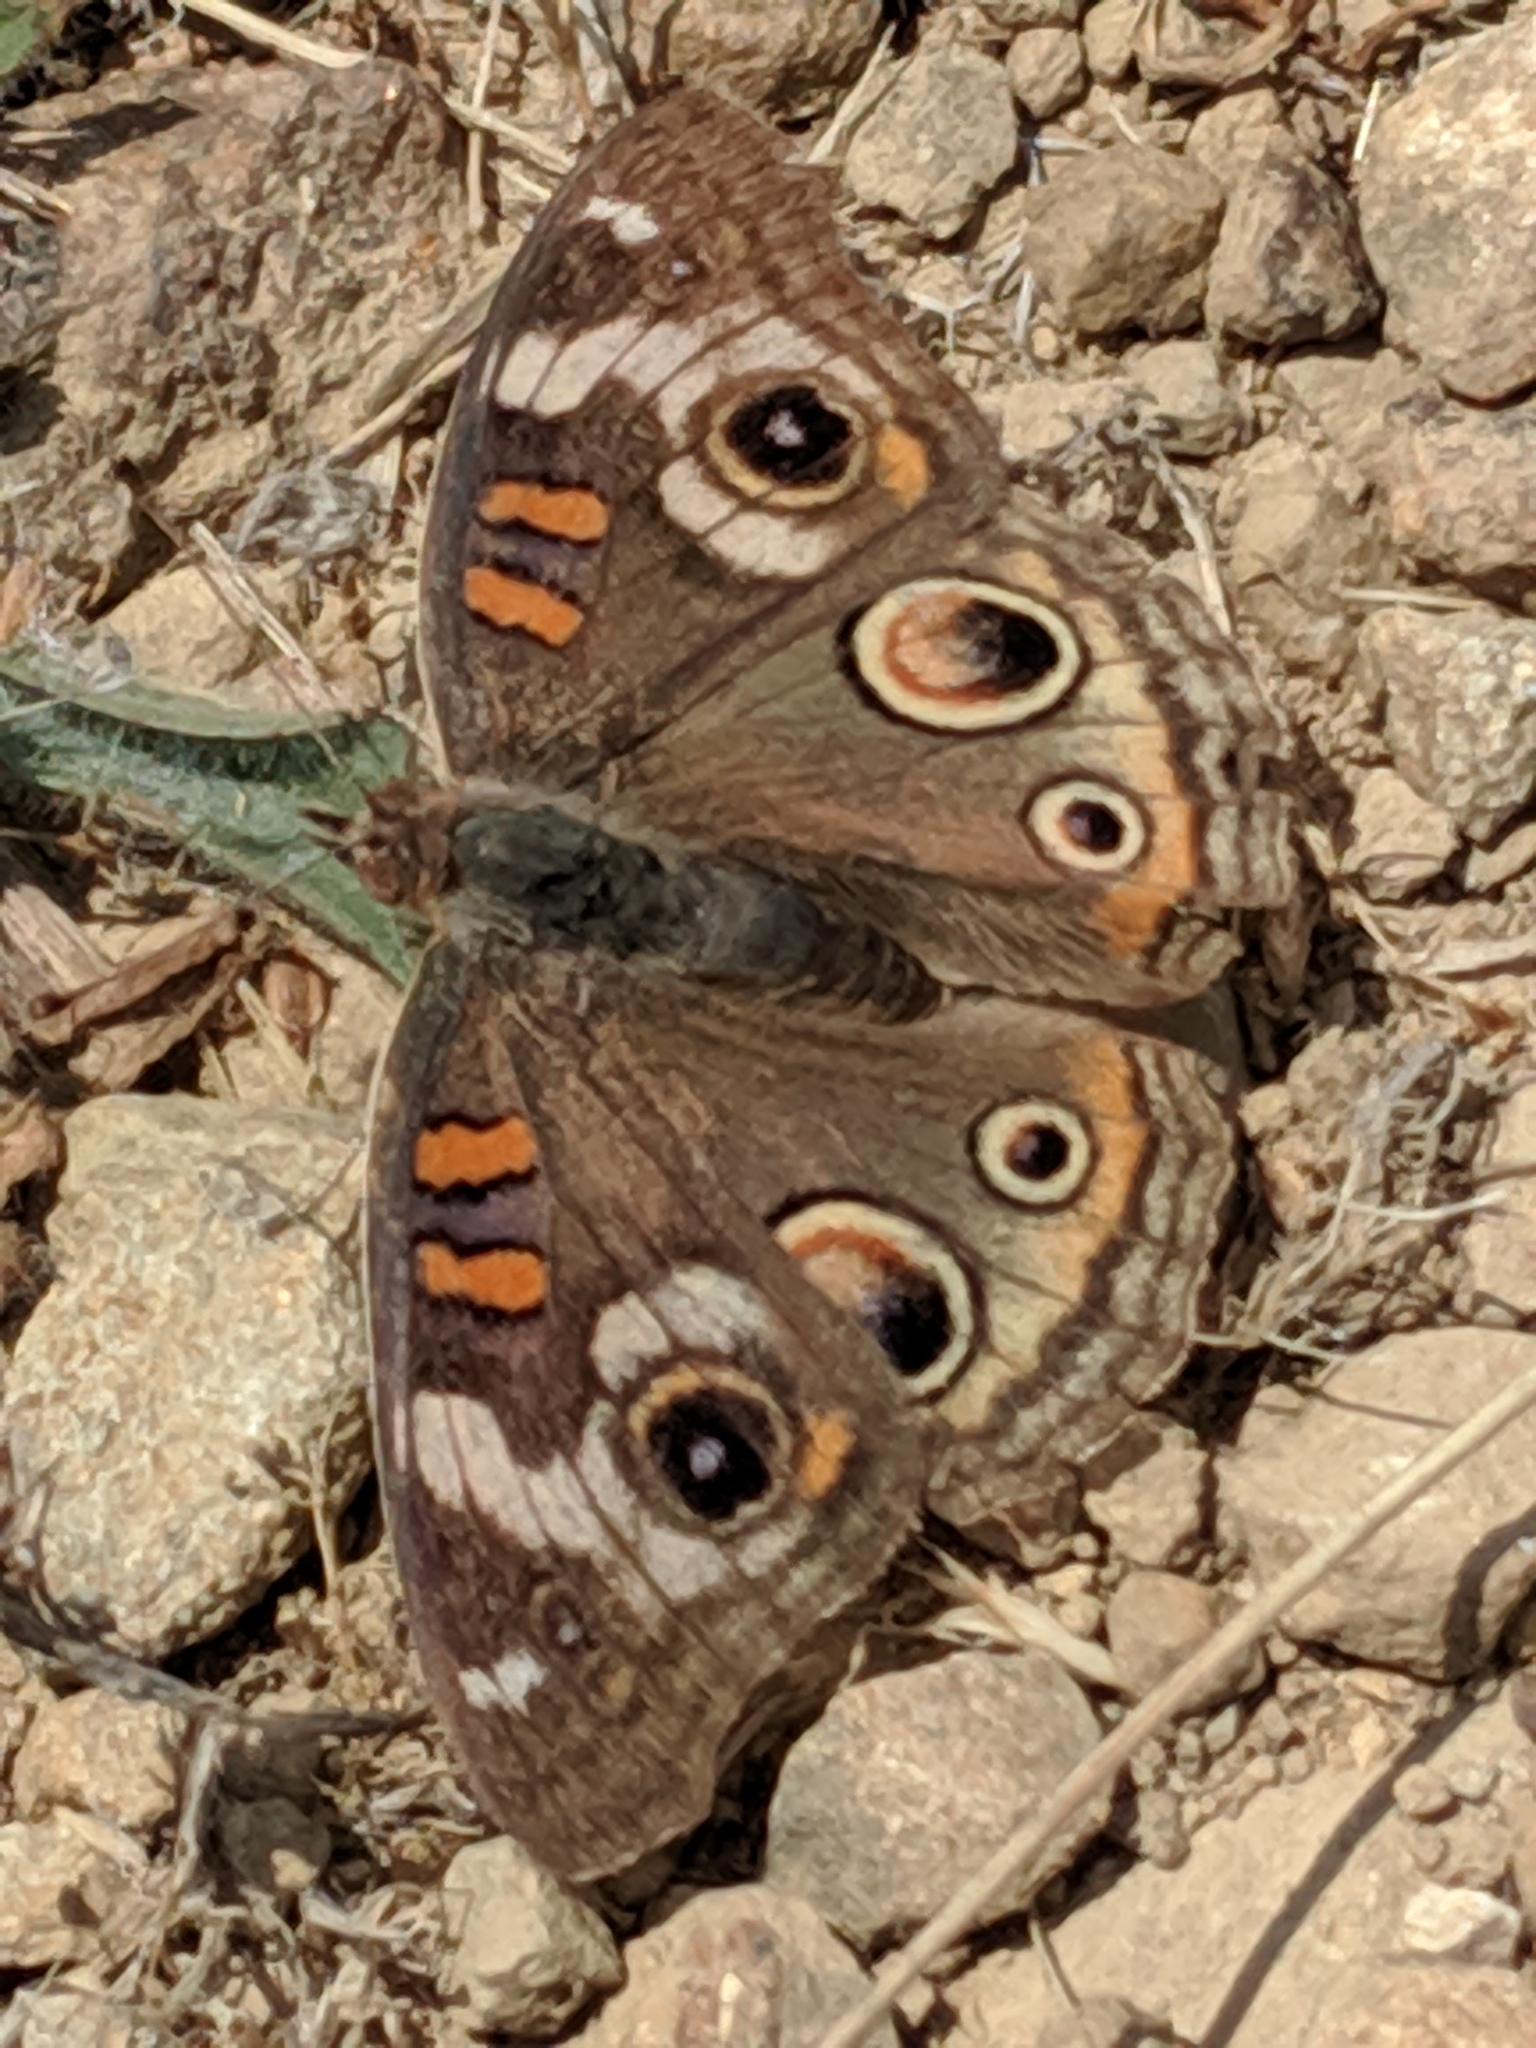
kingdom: Animalia
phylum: Arthropoda
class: Insecta
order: Lepidoptera
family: Nymphalidae
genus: Junonia
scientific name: Junonia grisea
